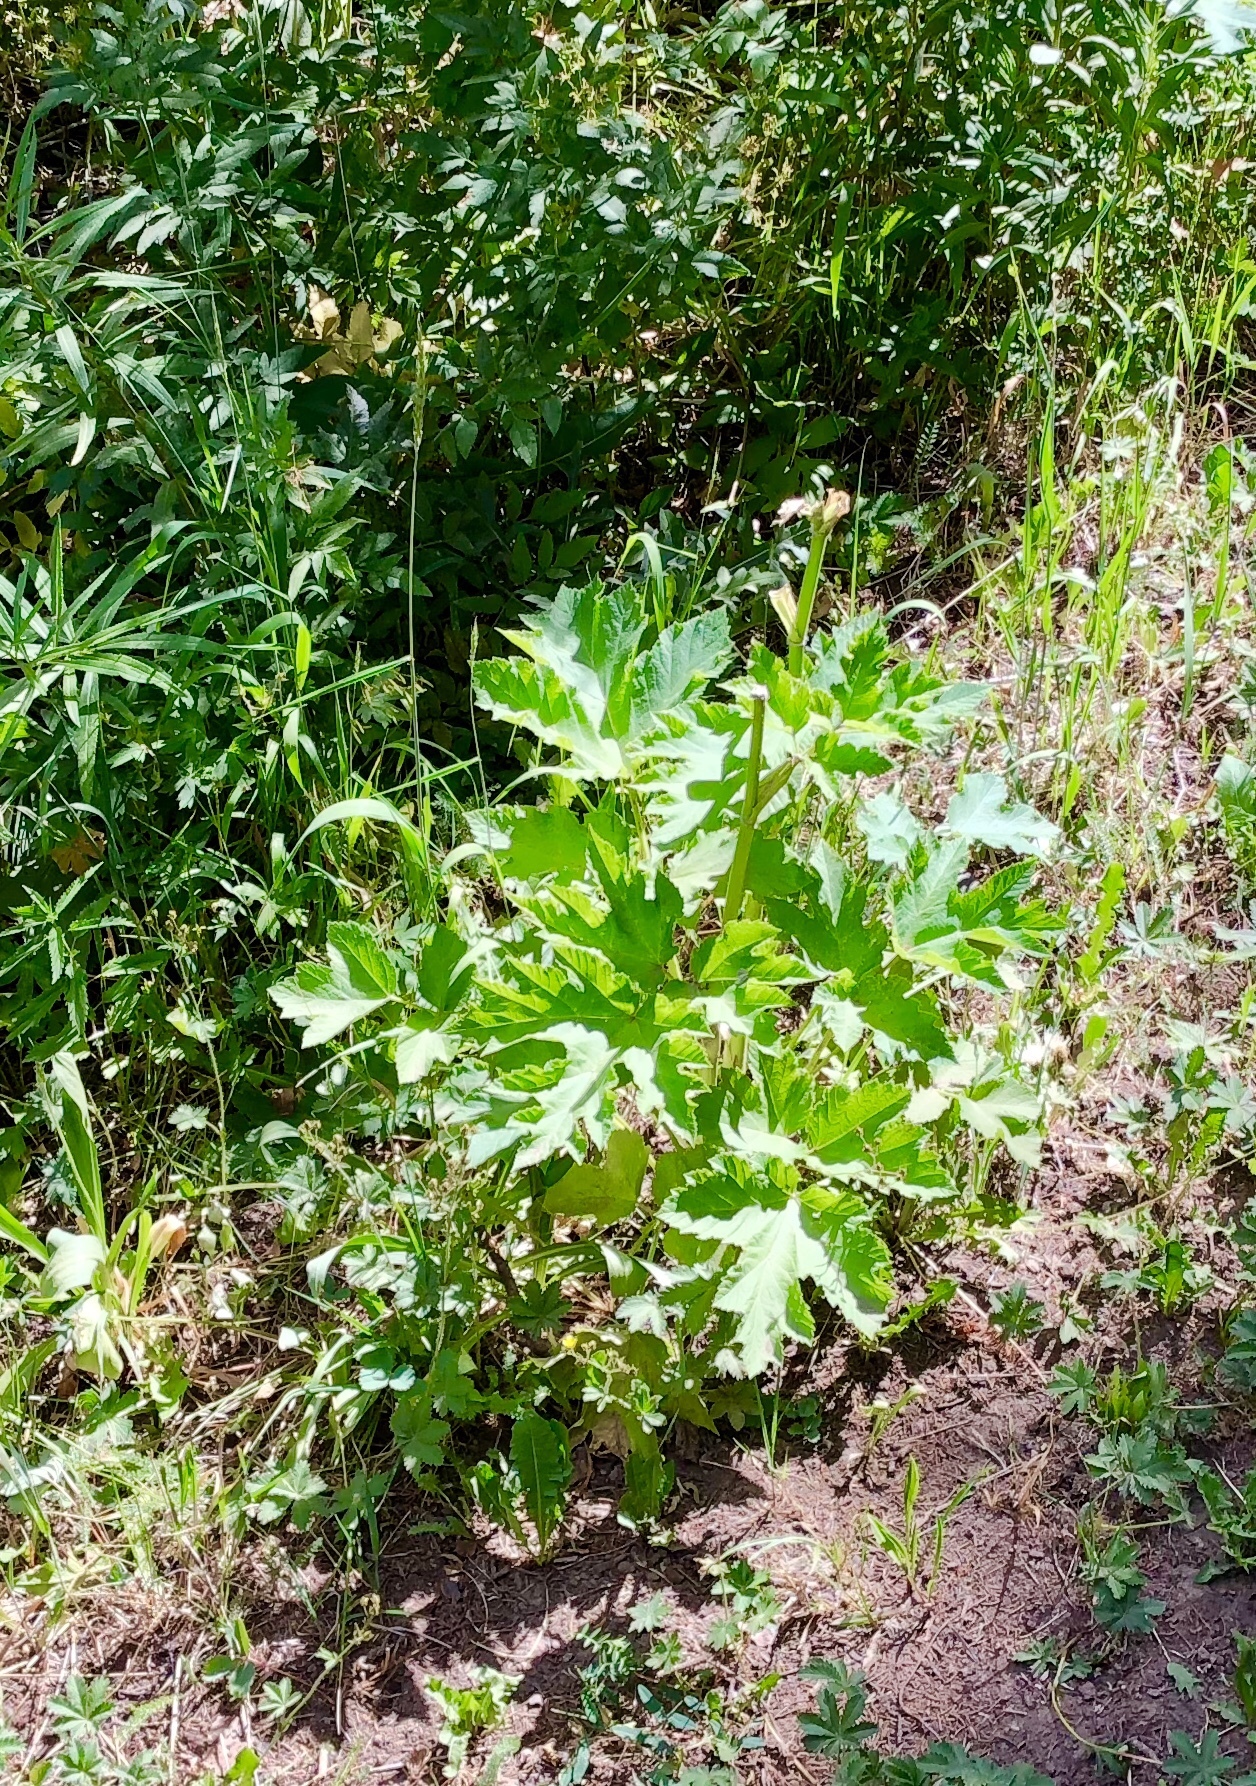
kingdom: Plantae
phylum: Tracheophyta
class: Magnoliopsida
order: Apiales
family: Apiaceae
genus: Heracleum
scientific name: Heracleum maximum
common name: American cow parsnip
